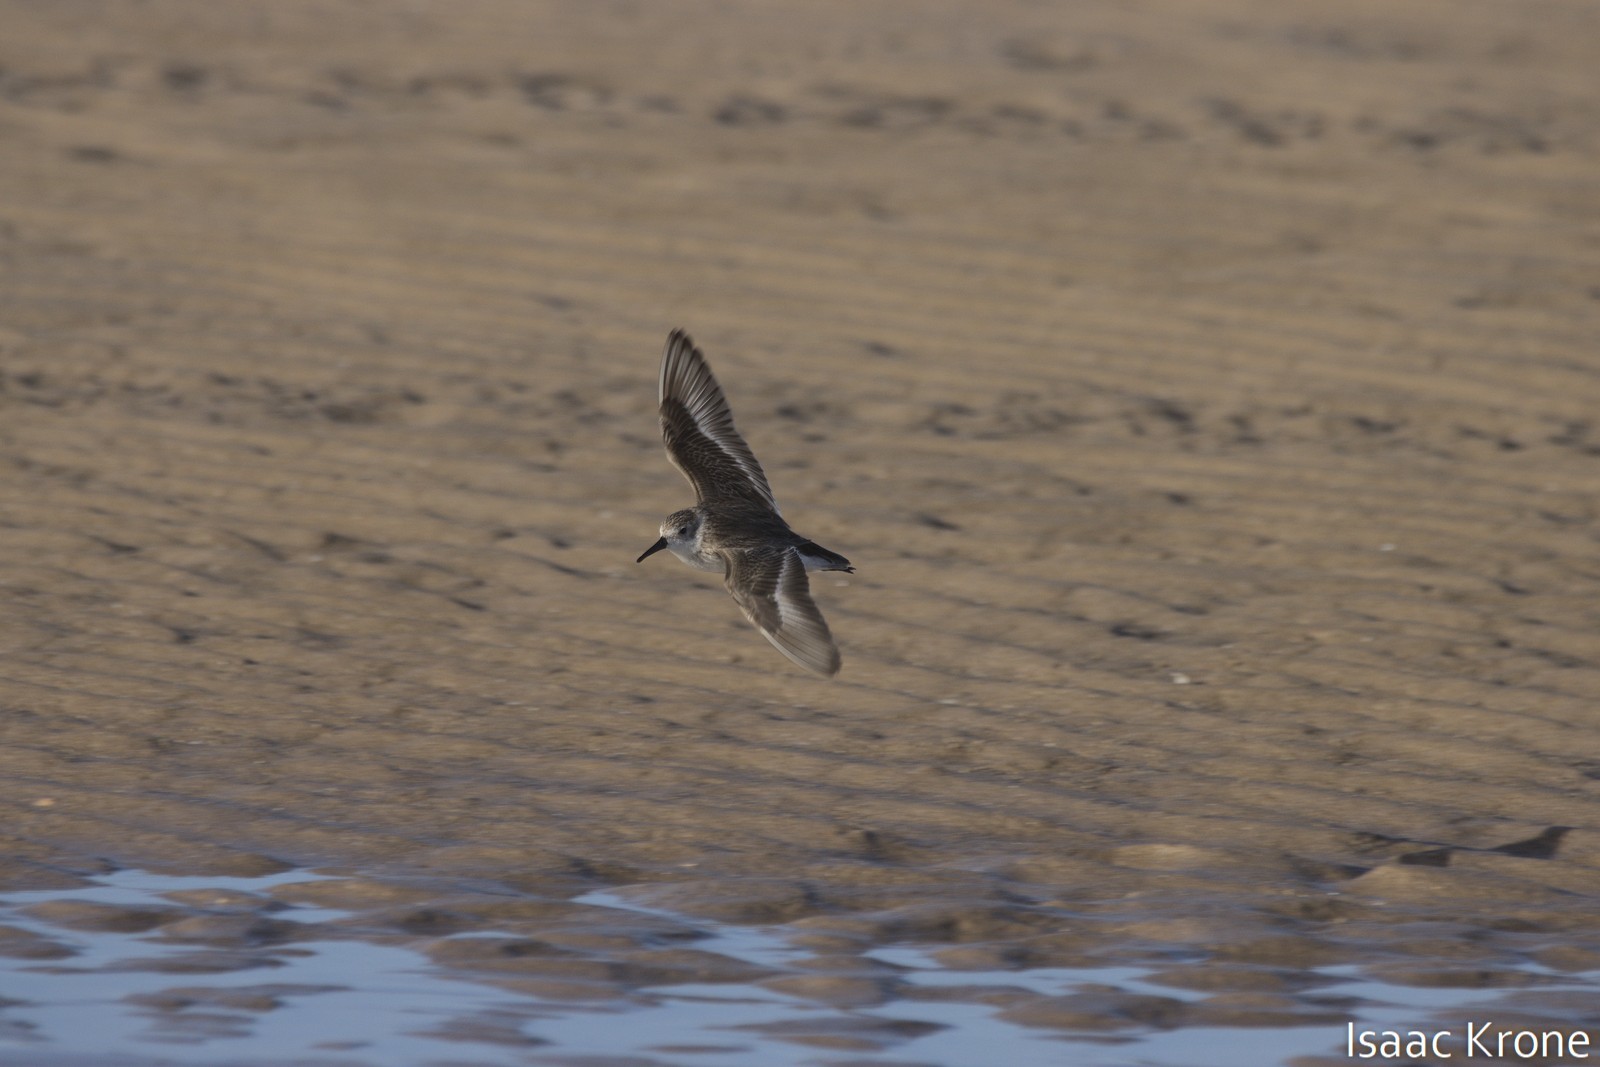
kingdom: Animalia
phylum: Chordata
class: Aves
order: Charadriiformes
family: Scolopacidae
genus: Calidris
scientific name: Calidris mauri
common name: Western sandpiper
